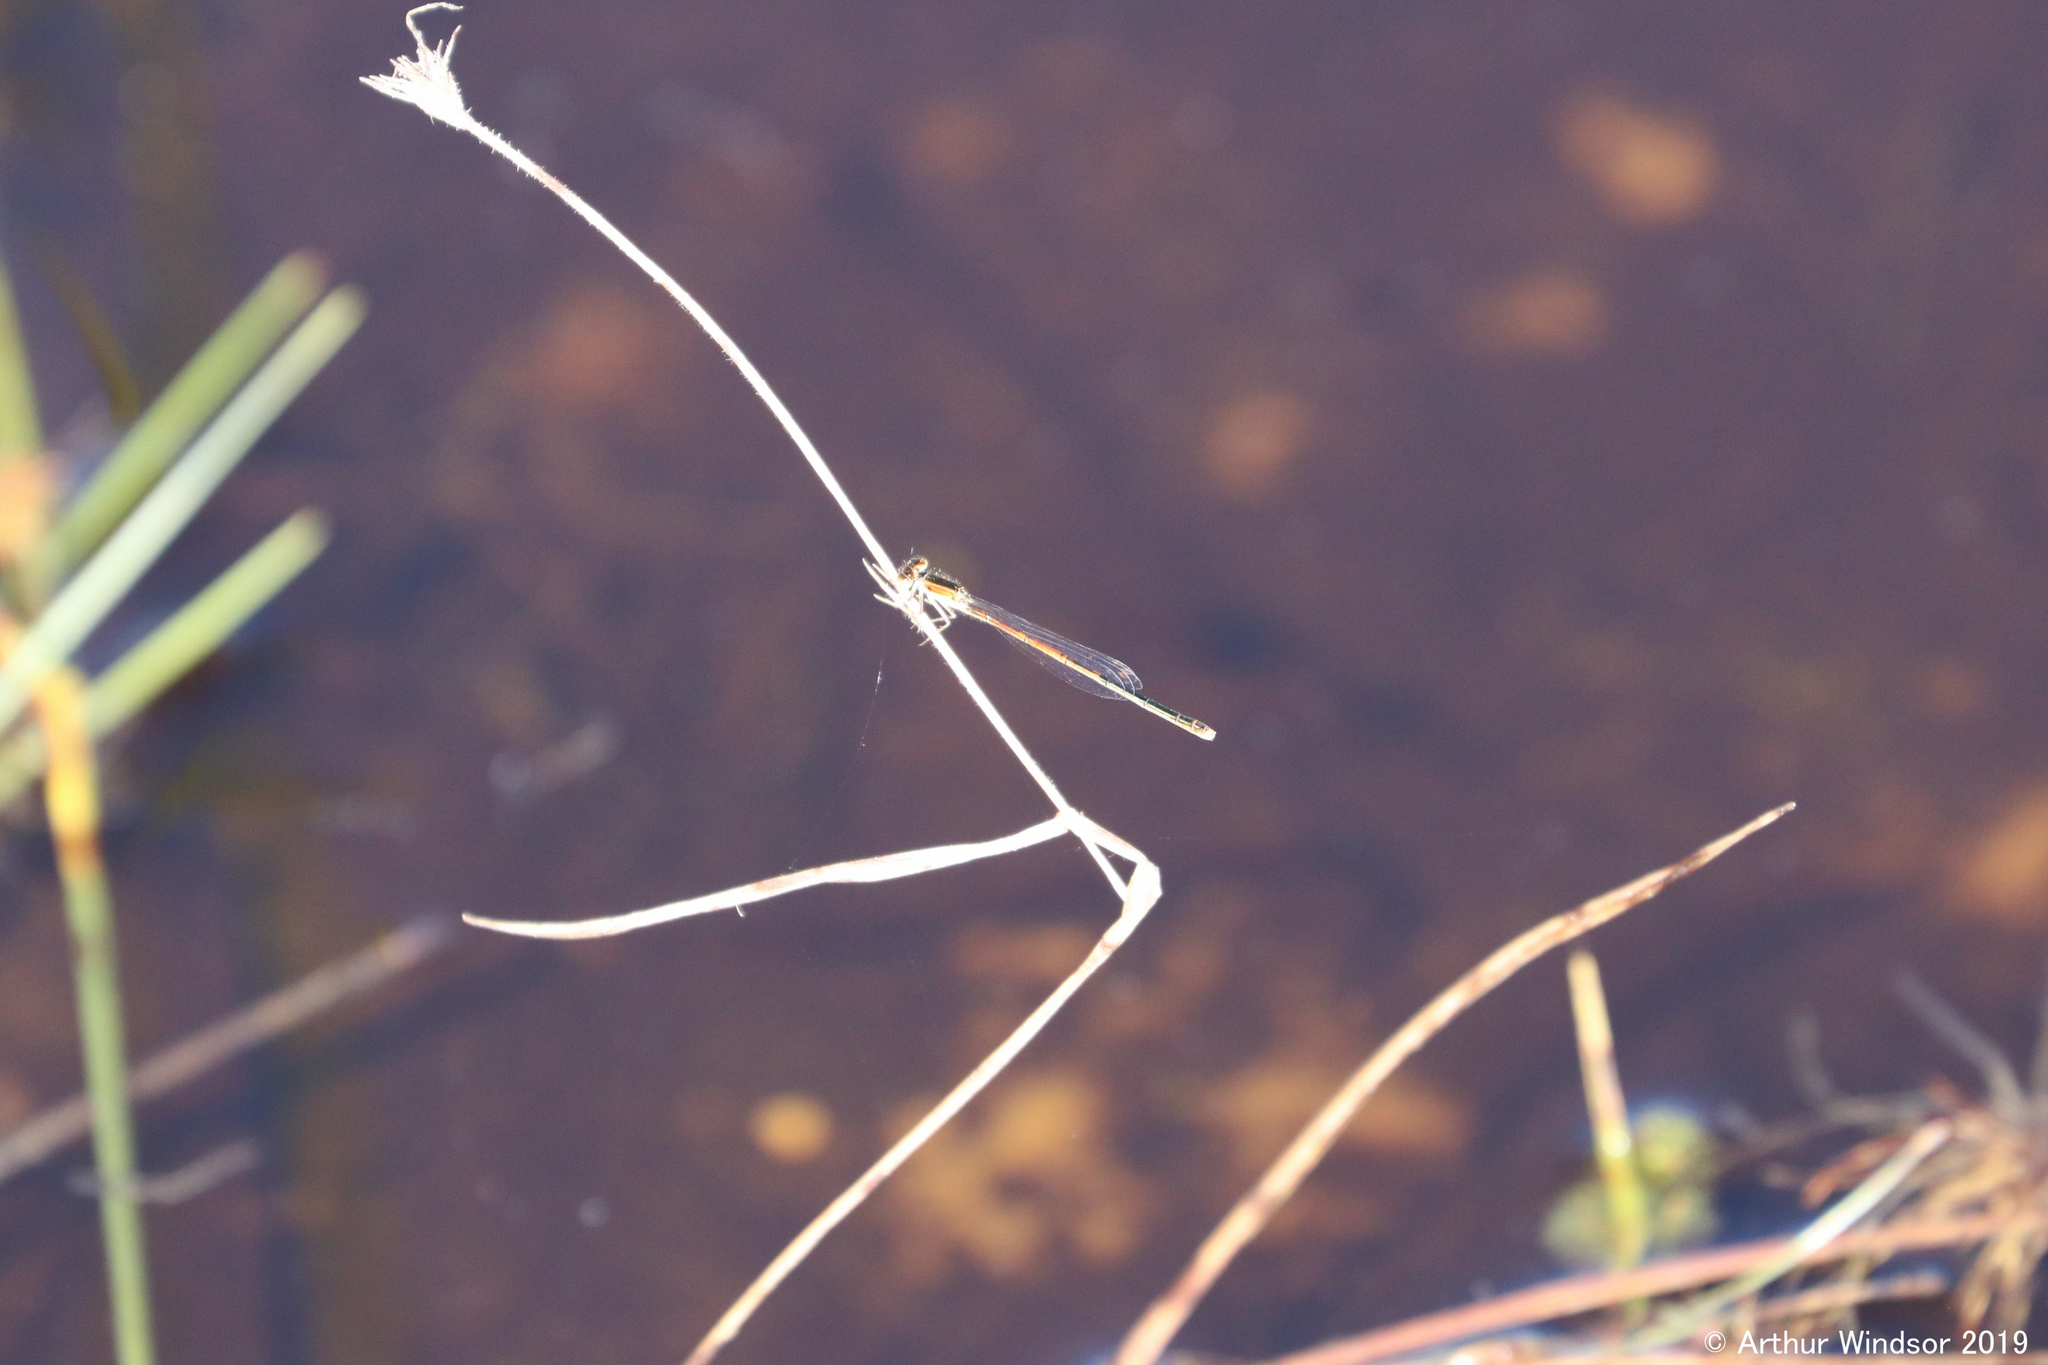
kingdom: Animalia
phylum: Arthropoda
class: Insecta
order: Odonata
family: Coenagrionidae
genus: Ischnura
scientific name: Ischnura hastata
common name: Citrine forktail
